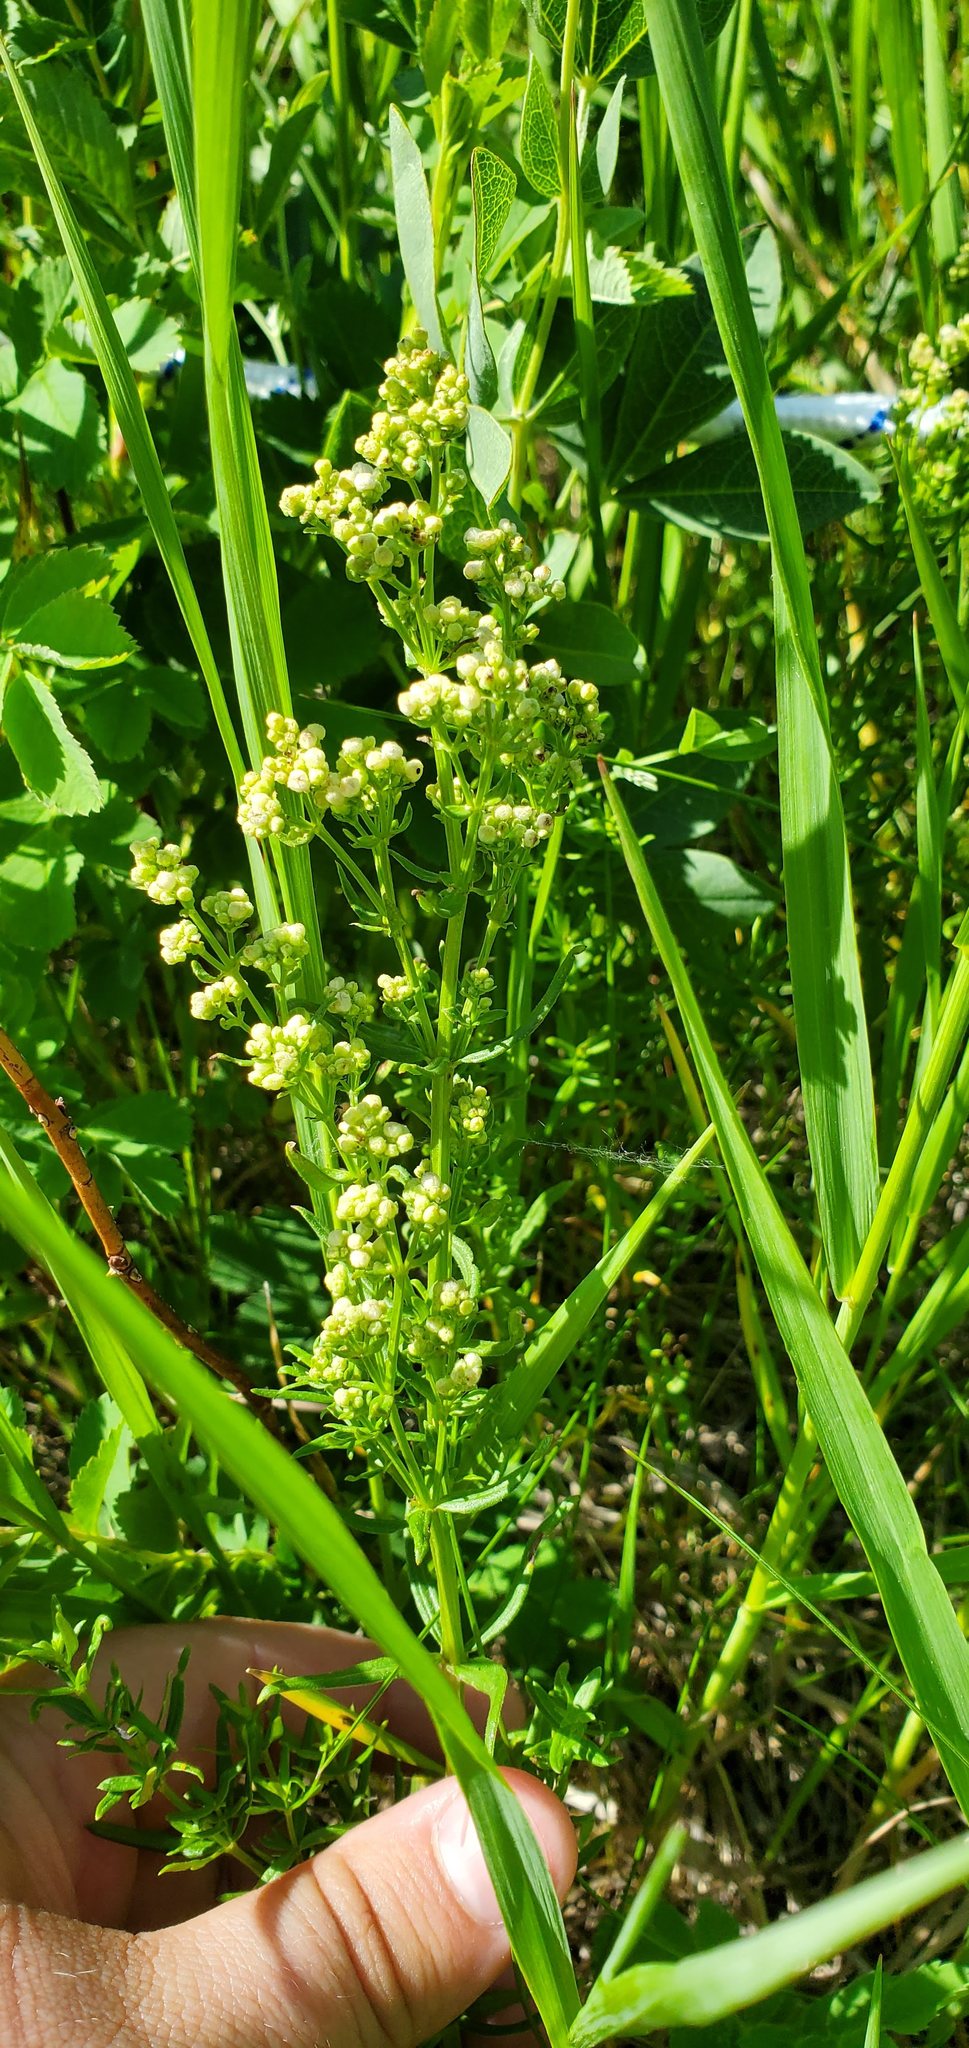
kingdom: Plantae
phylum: Tracheophyta
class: Magnoliopsida
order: Gentianales
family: Rubiaceae
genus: Galium
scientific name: Galium boreale
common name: Northern bedstraw
